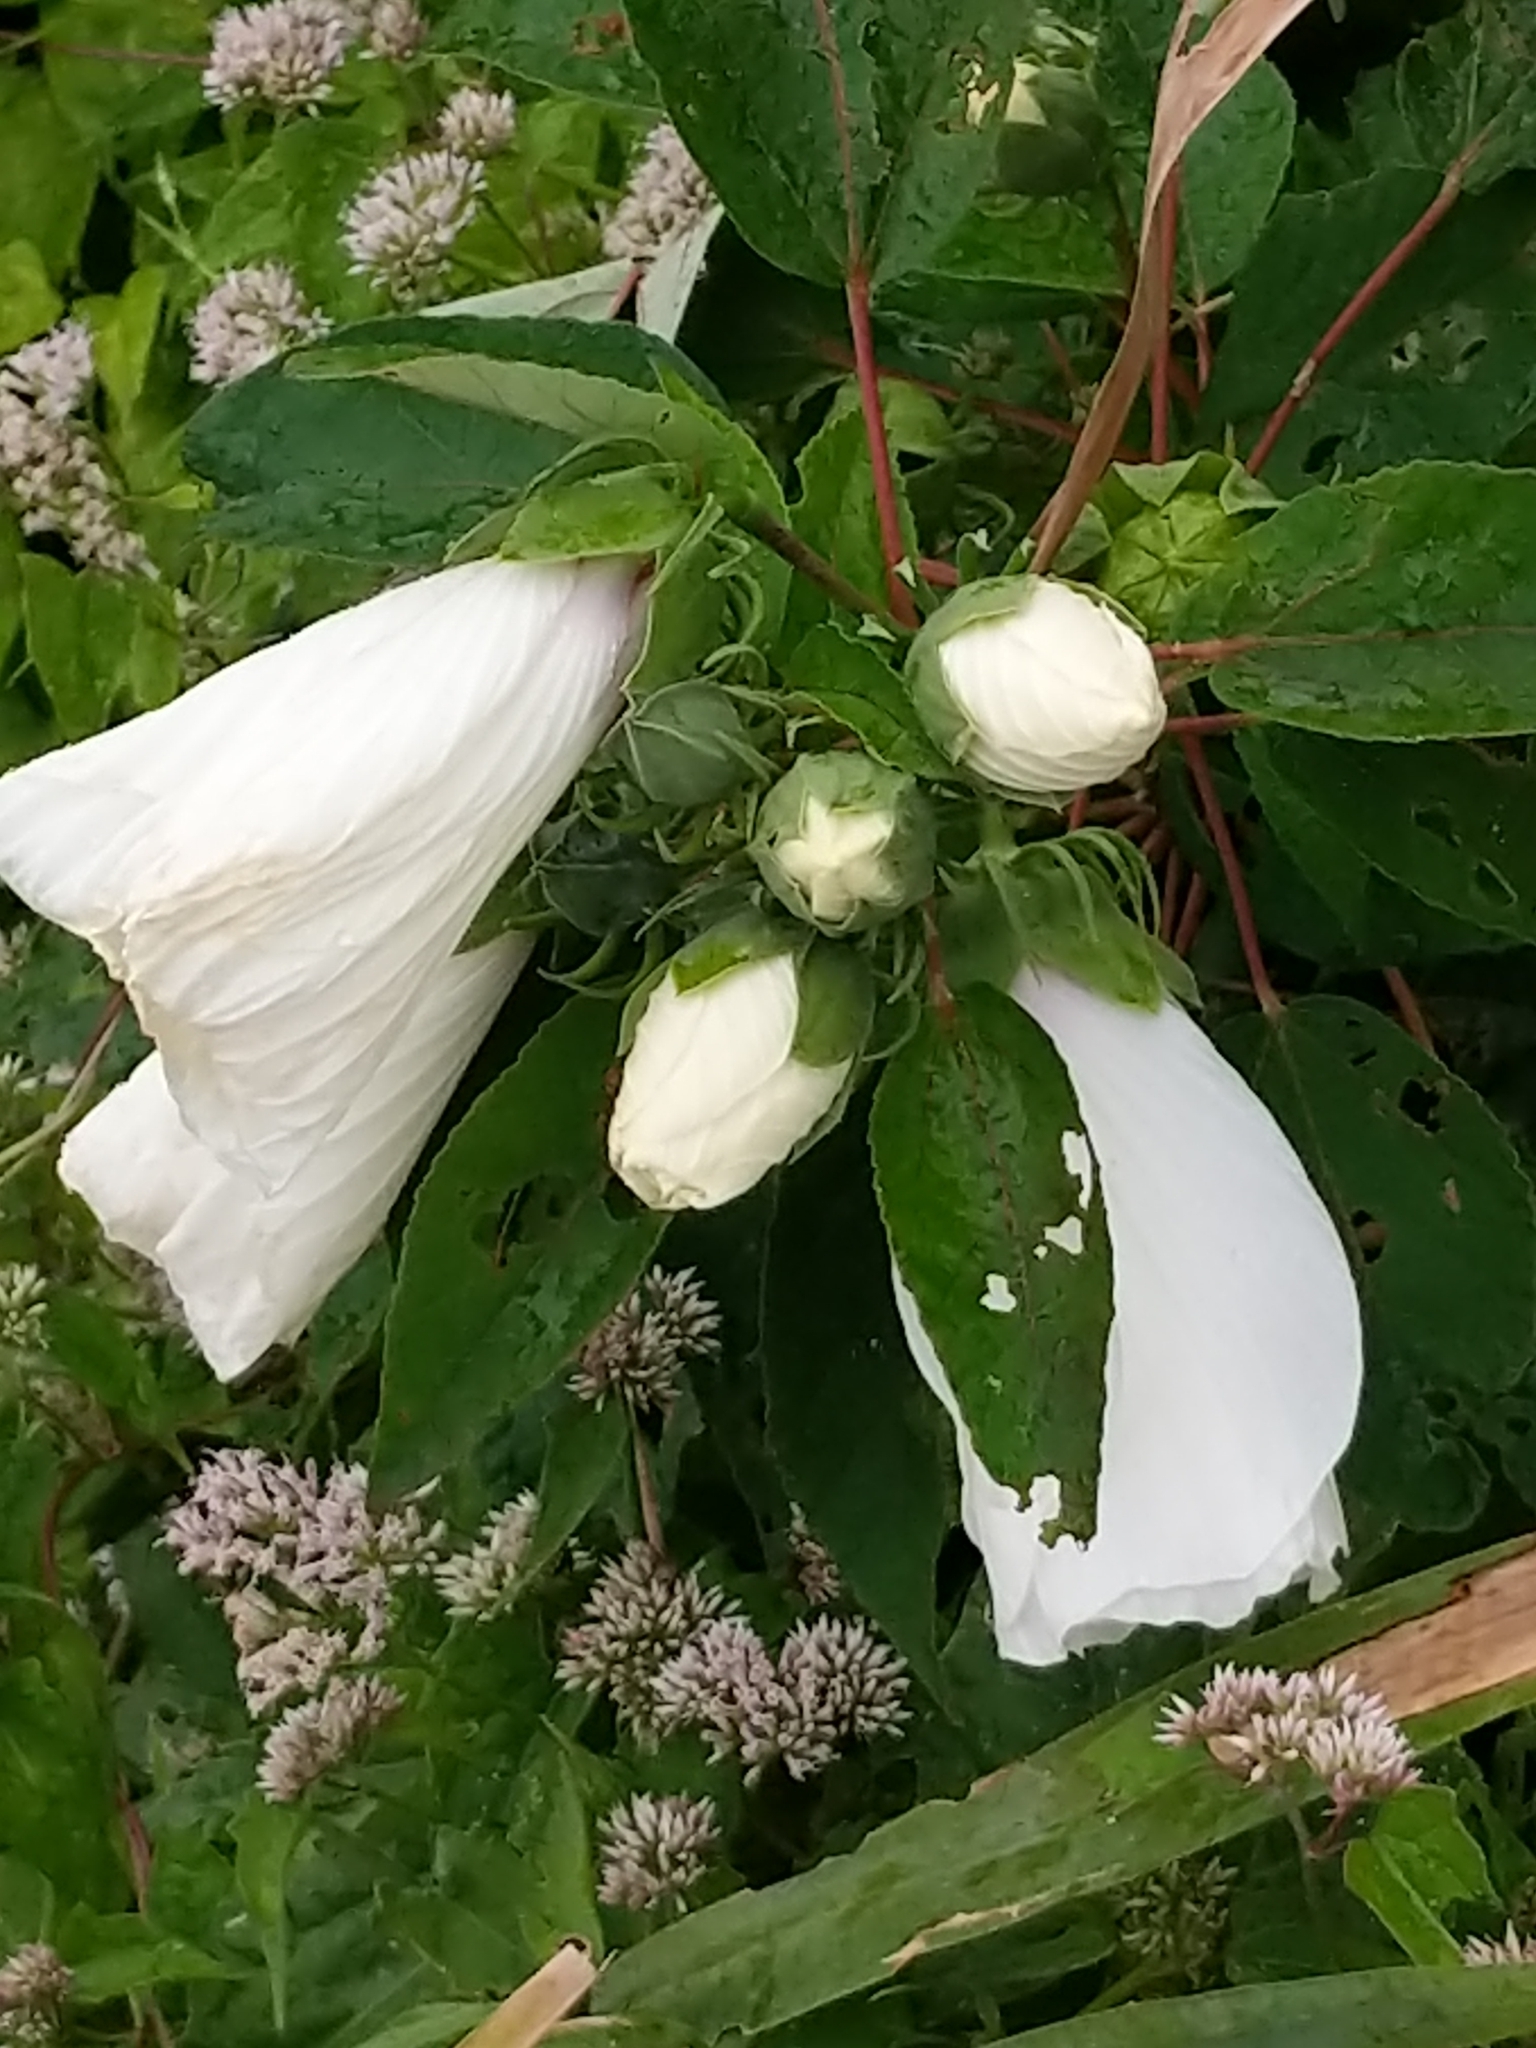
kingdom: Plantae
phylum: Tracheophyta
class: Magnoliopsida
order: Malvales
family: Malvaceae
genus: Hibiscus
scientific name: Hibiscus moscheutos
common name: Common rose-mallow
